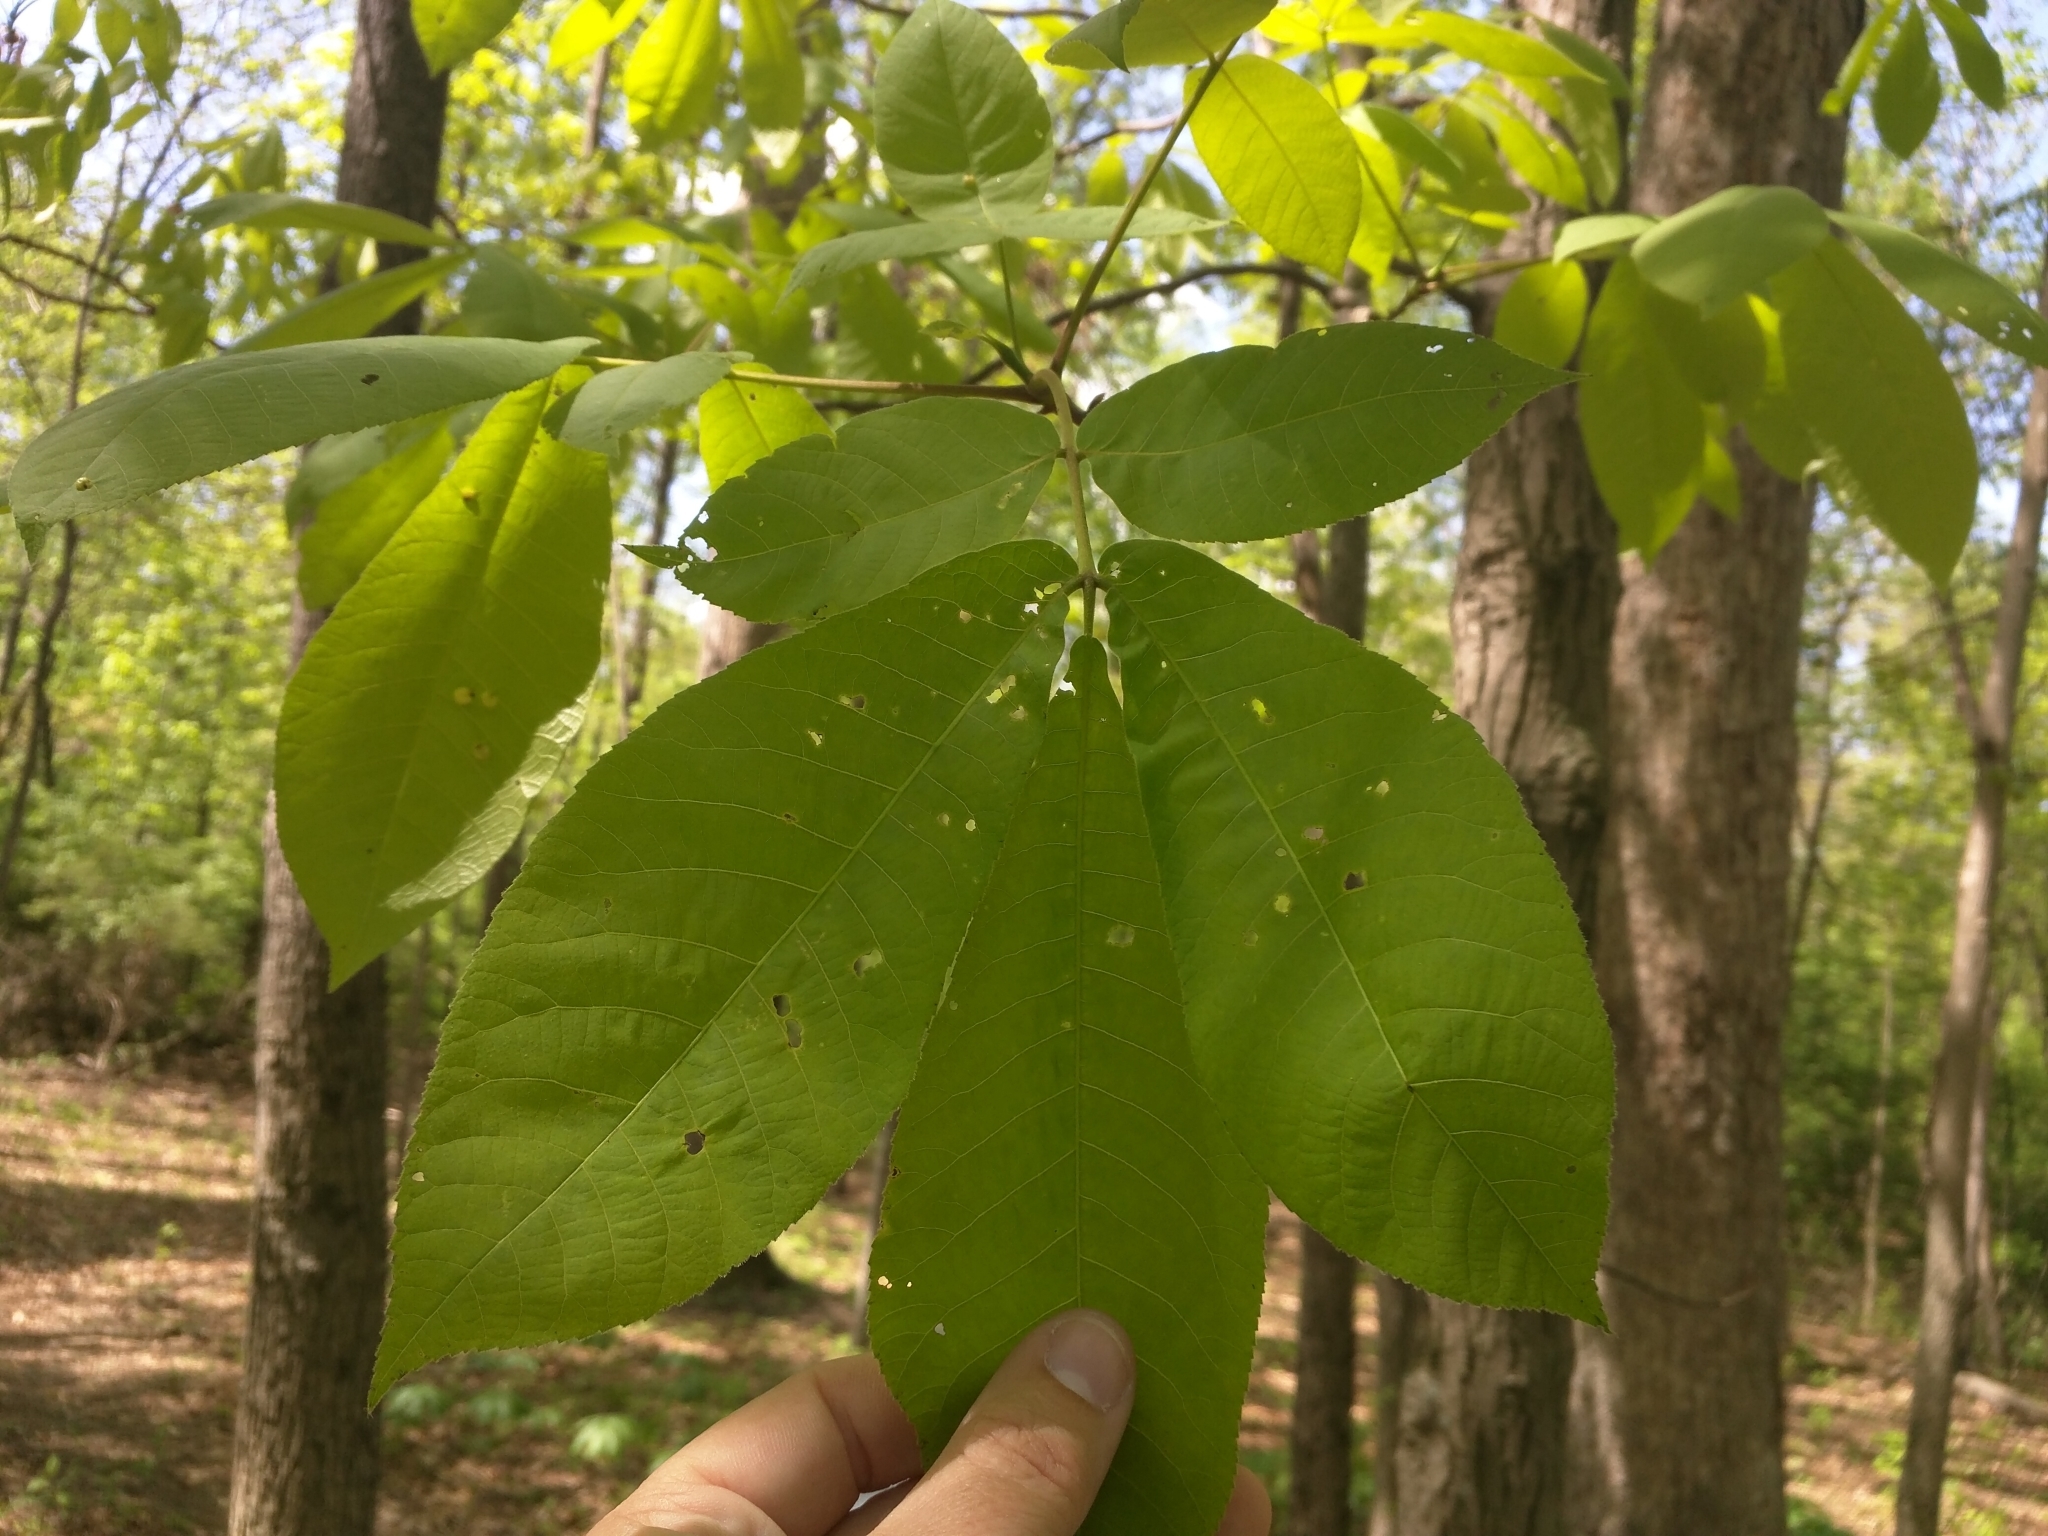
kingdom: Plantae
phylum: Tracheophyta
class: Magnoliopsida
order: Fagales
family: Juglandaceae
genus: Carya
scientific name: Carya ovata
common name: Shagbark hickory
